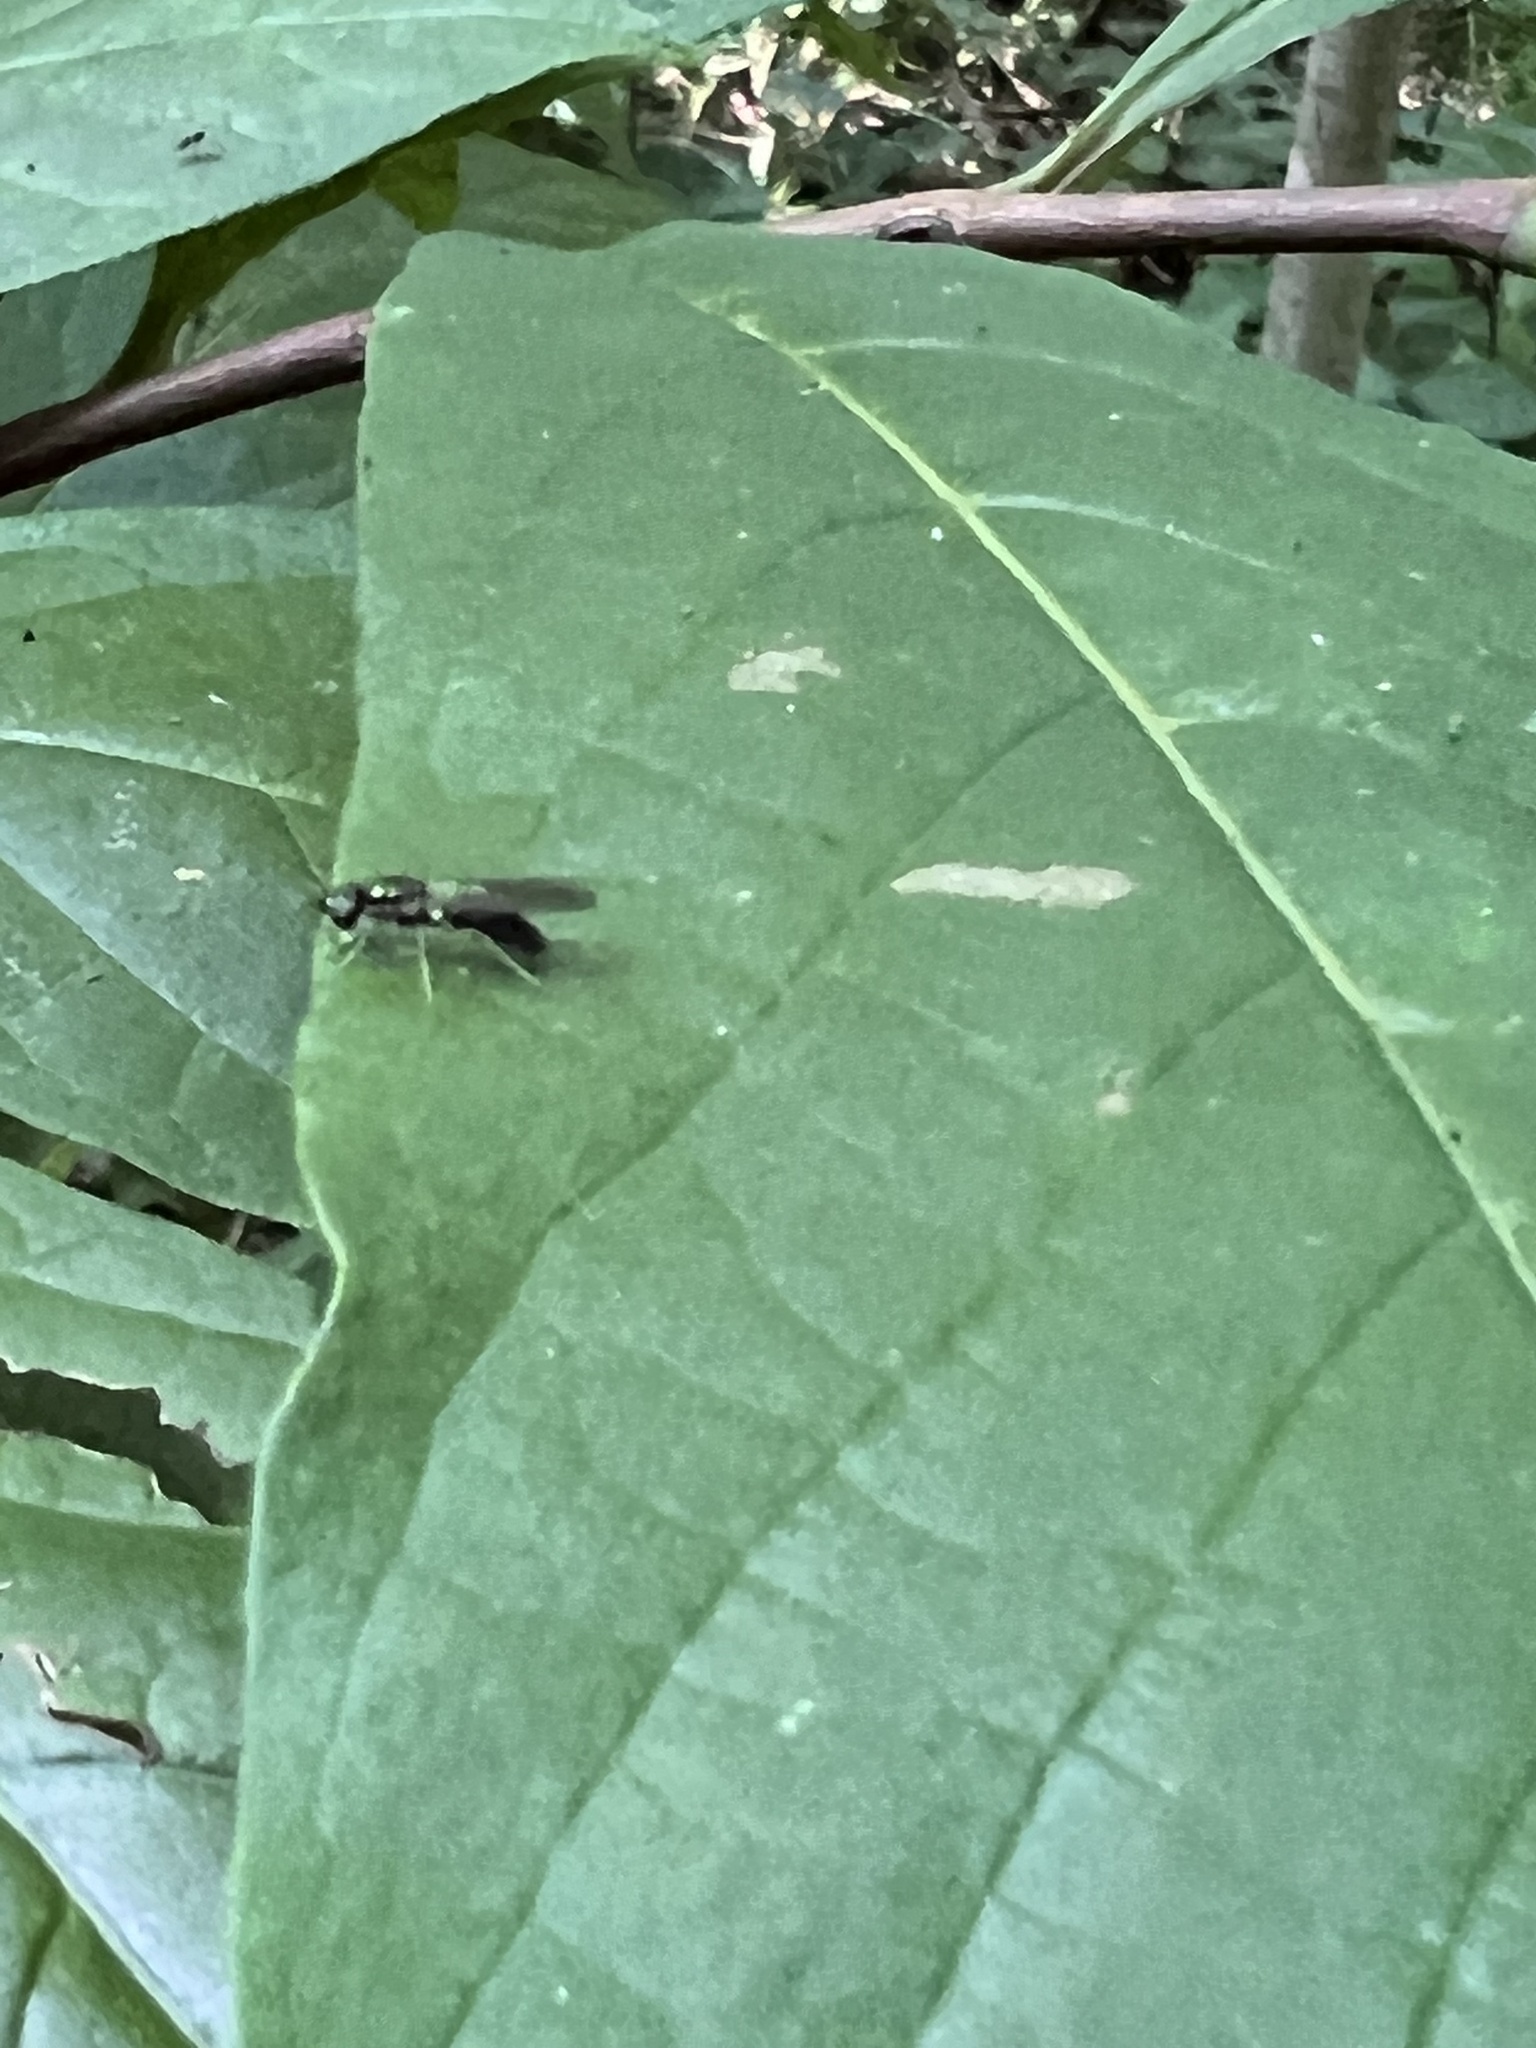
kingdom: Animalia
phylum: Arthropoda
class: Insecta
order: Diptera
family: Stratiomyidae
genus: Sargus
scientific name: Sargus decorus
